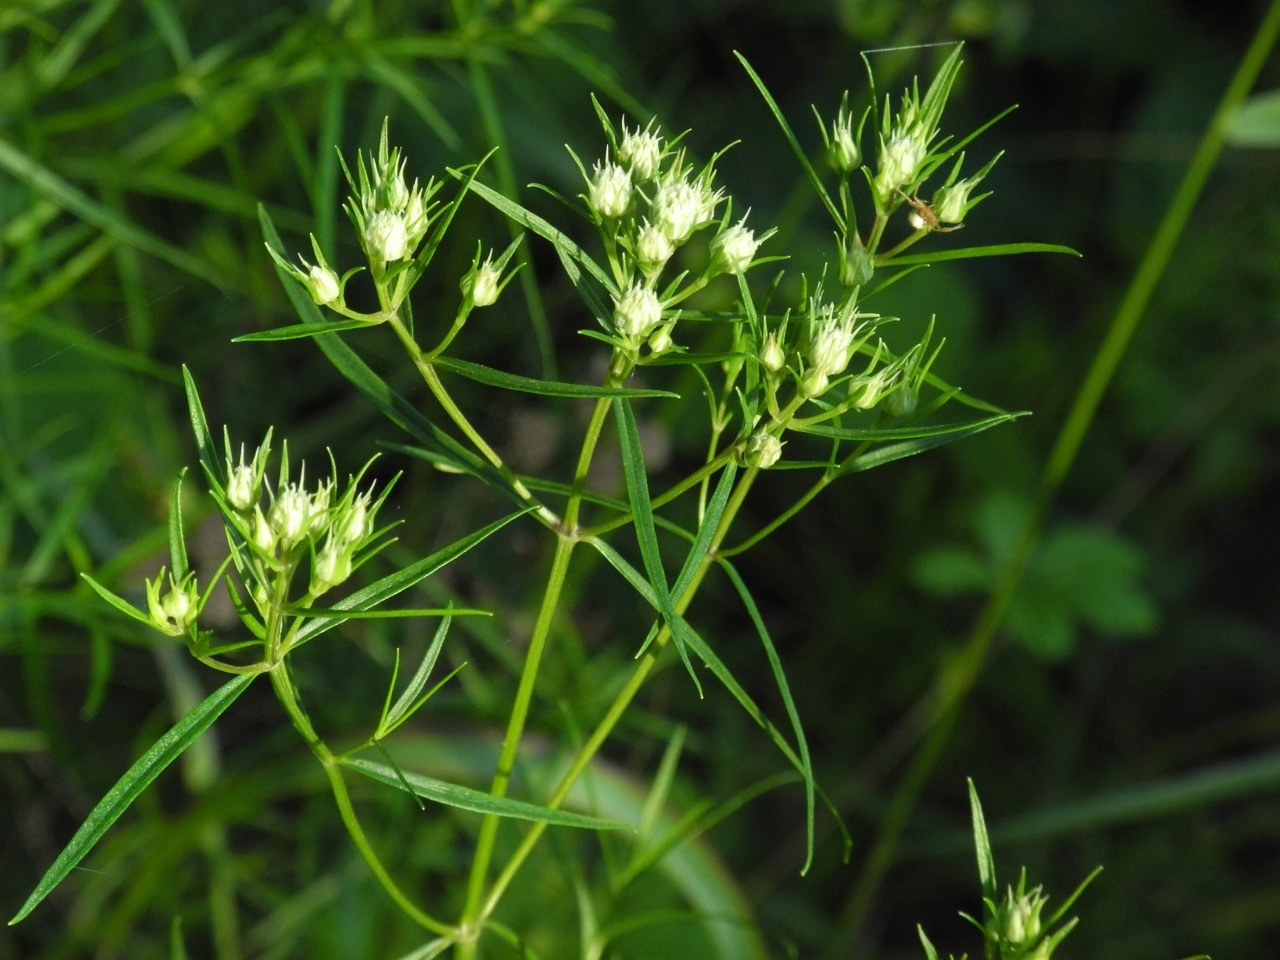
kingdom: Plantae
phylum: Tracheophyta
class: Magnoliopsida
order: Lamiales
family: Lamiaceae
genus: Pycnanthemum
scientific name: Pycnanthemum tenuifolium
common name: Narrow-leaf mountain-mint
